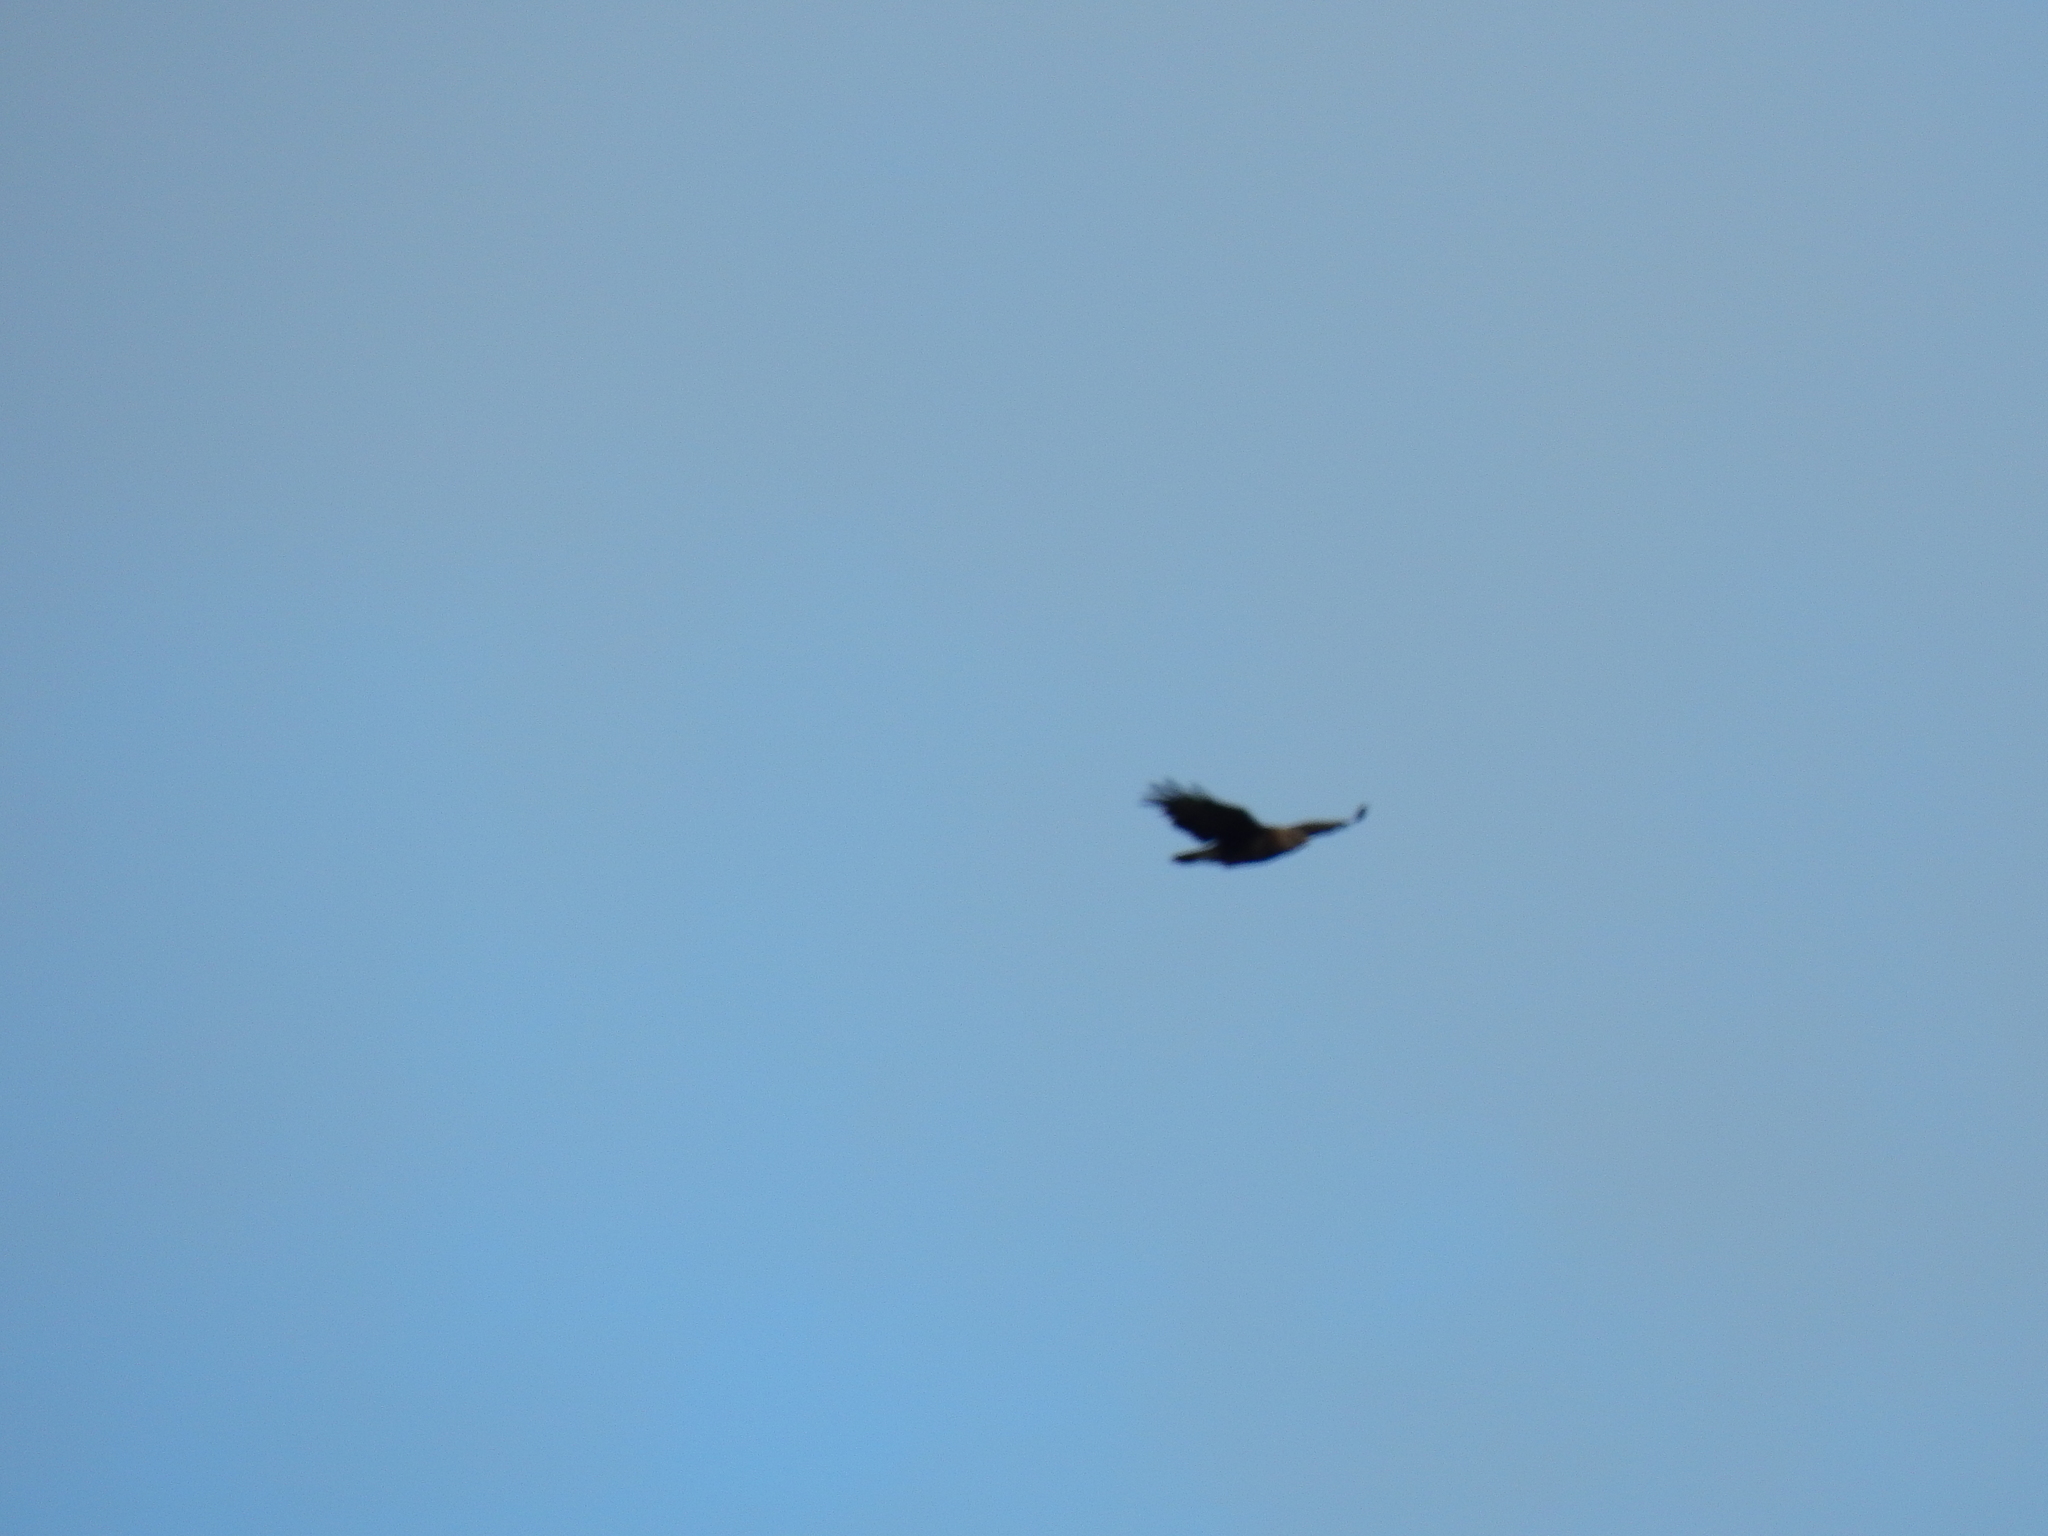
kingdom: Animalia
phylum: Chordata
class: Aves
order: Accipitriformes
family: Accipitridae
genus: Buteo
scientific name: Buteo buteo
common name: Common buzzard
